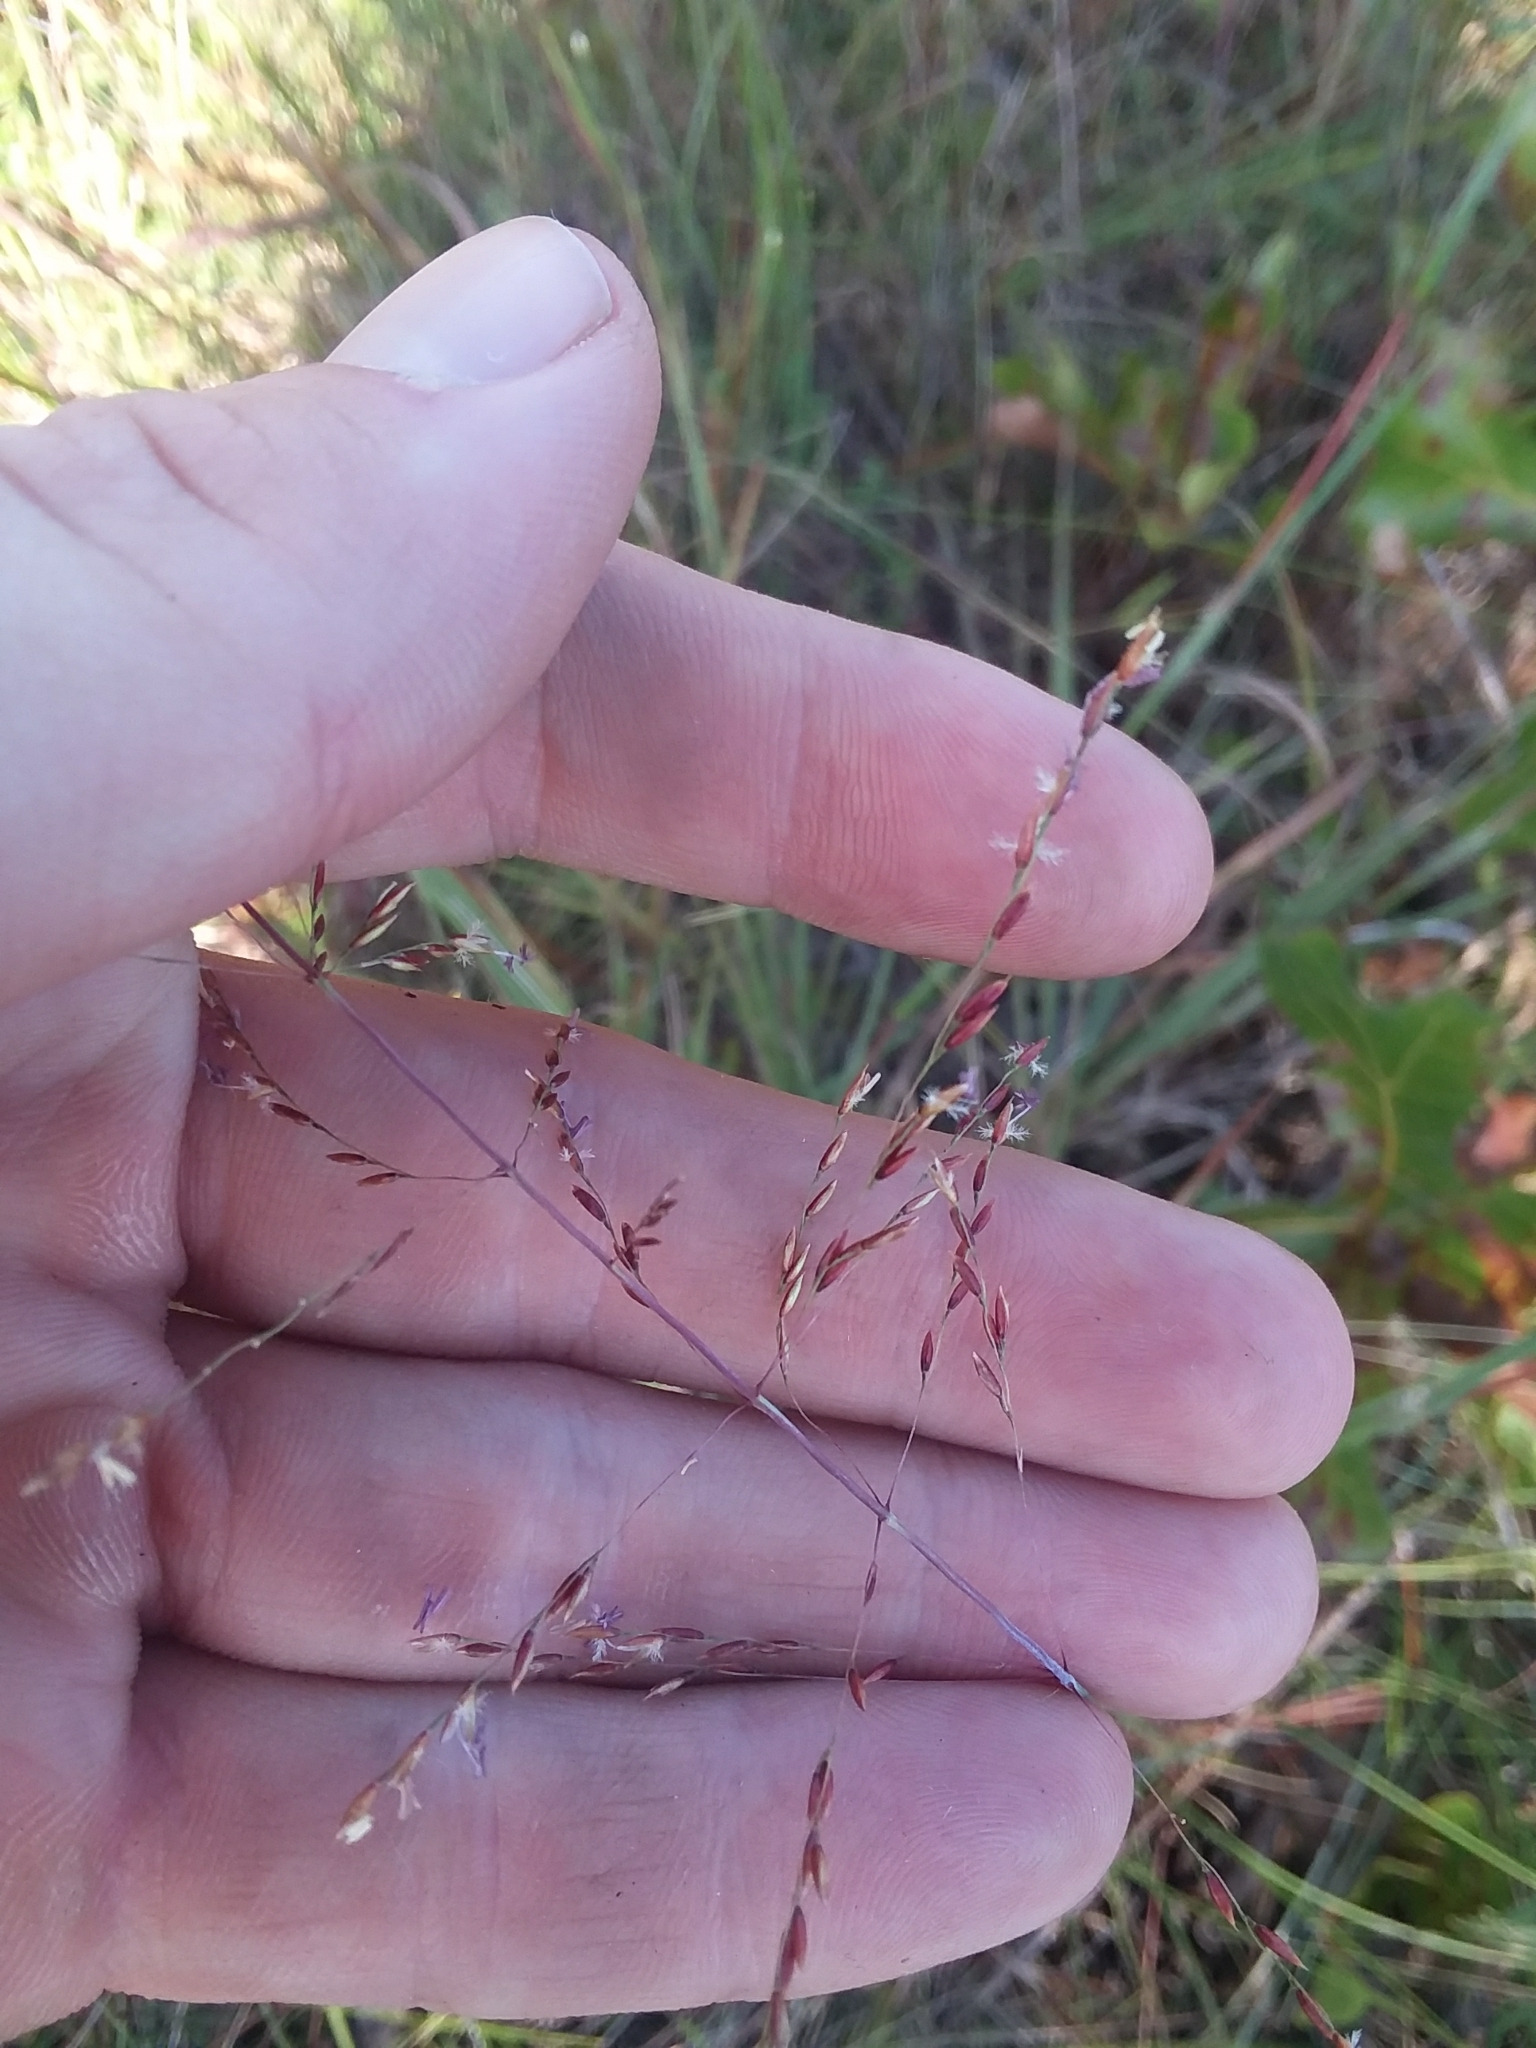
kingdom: Plantae
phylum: Tracheophyta
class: Liliopsida
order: Poales
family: Poaceae
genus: Sporobolus
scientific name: Sporobolus junceus
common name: Lizard grass
